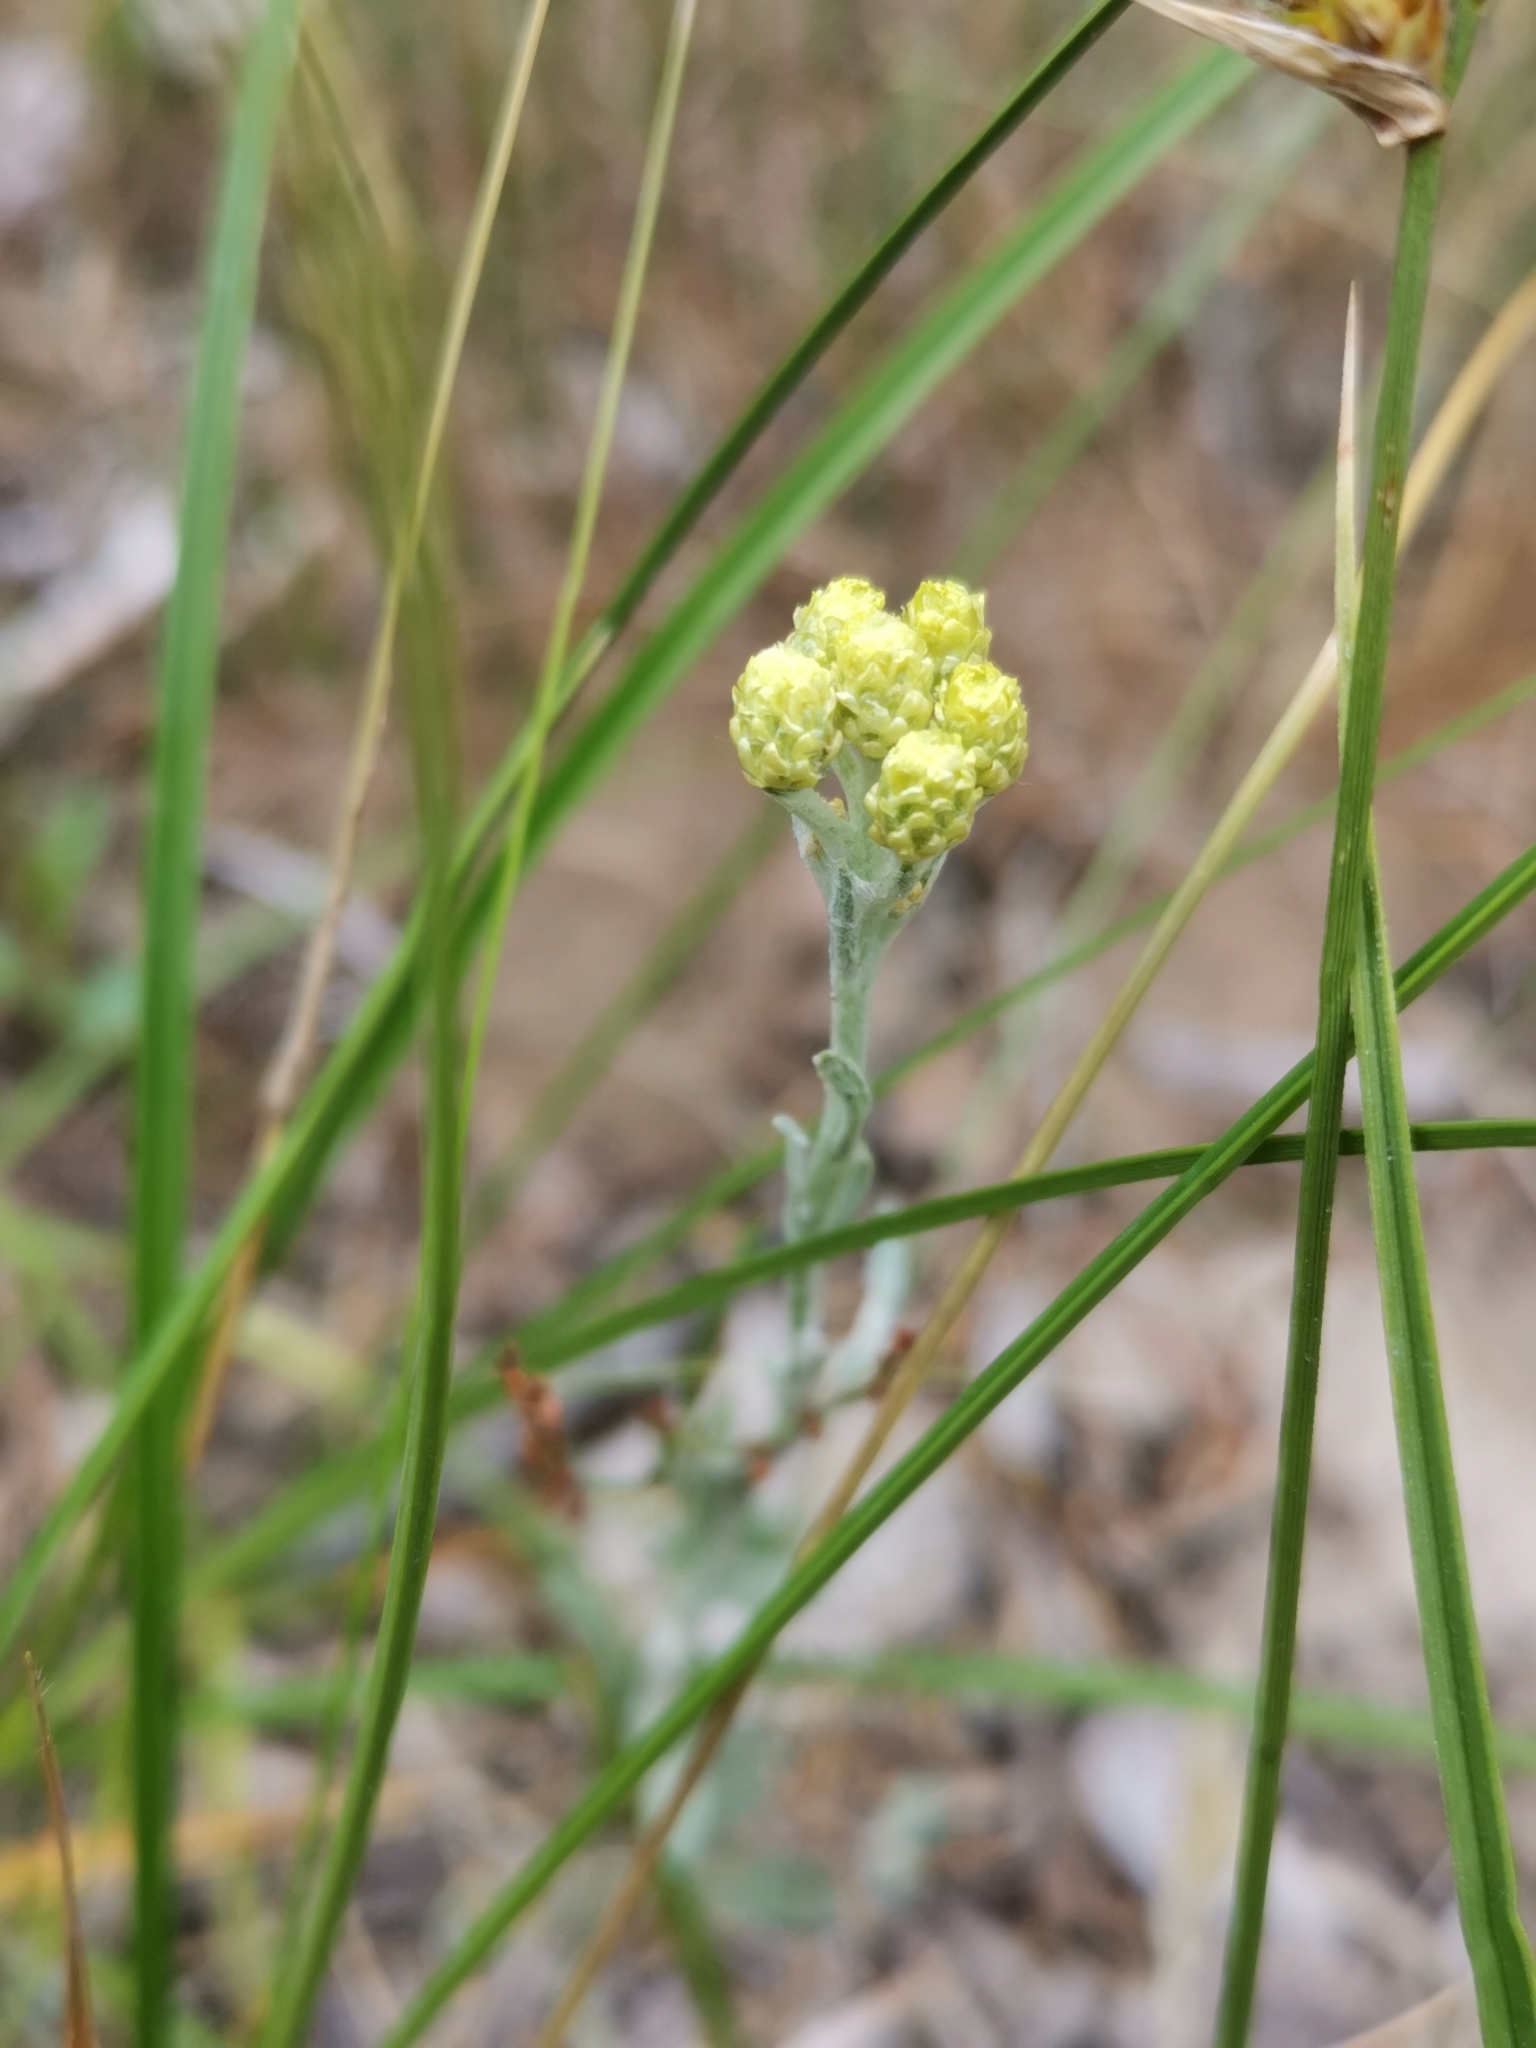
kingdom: Plantae
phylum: Tracheophyta
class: Magnoliopsida
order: Asterales
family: Asteraceae
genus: Helichrysum
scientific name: Helichrysum arenarium
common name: Strawflower
